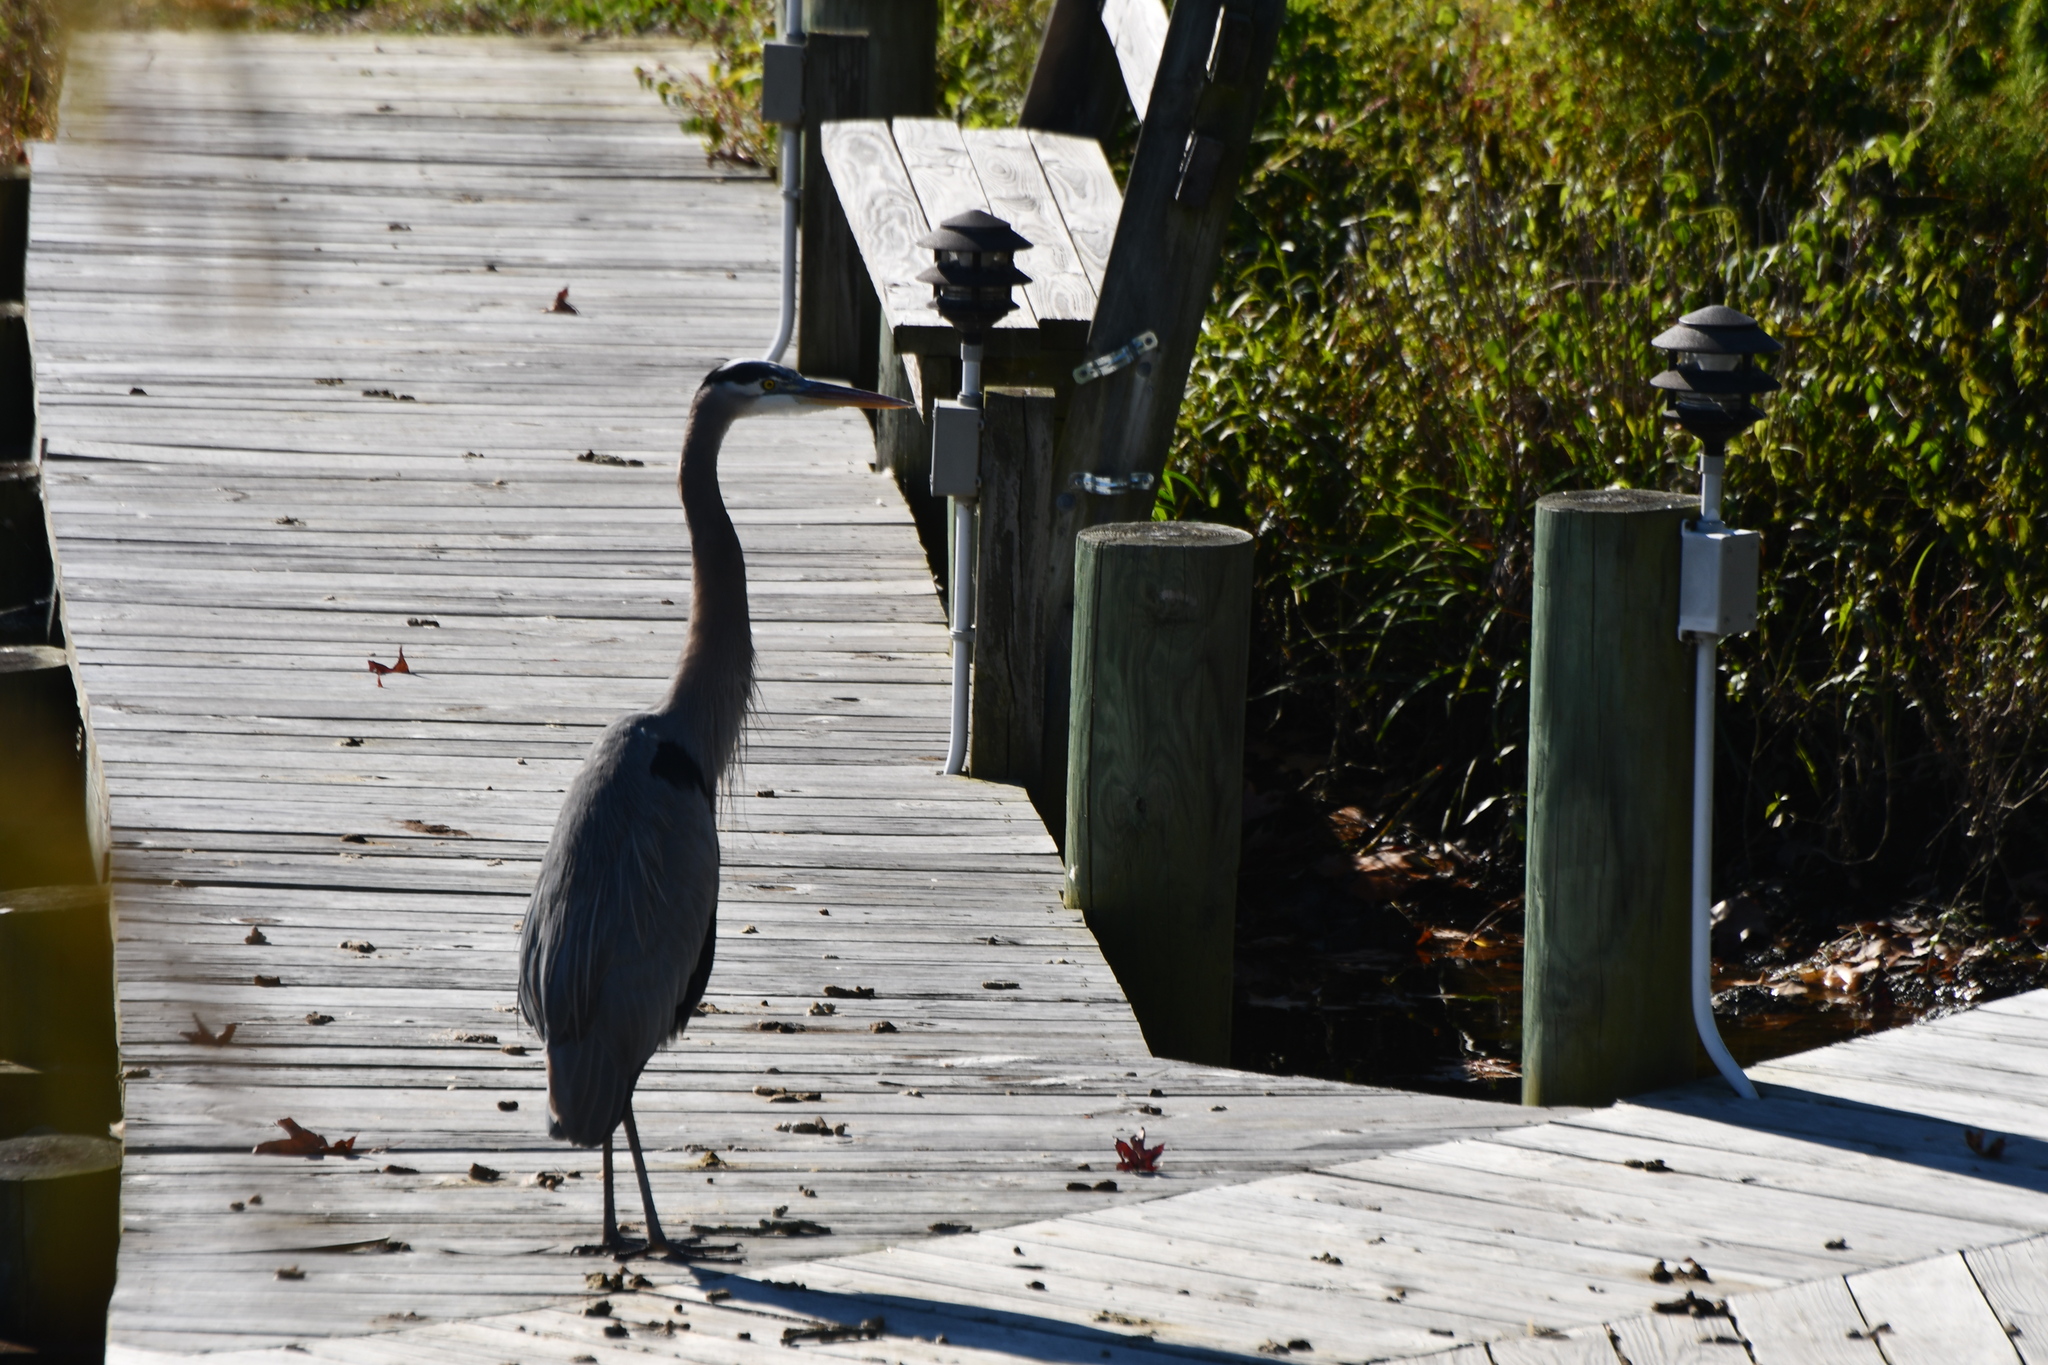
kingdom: Animalia
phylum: Chordata
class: Aves
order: Pelecaniformes
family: Ardeidae
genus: Ardea
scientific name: Ardea herodias
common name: Great blue heron
